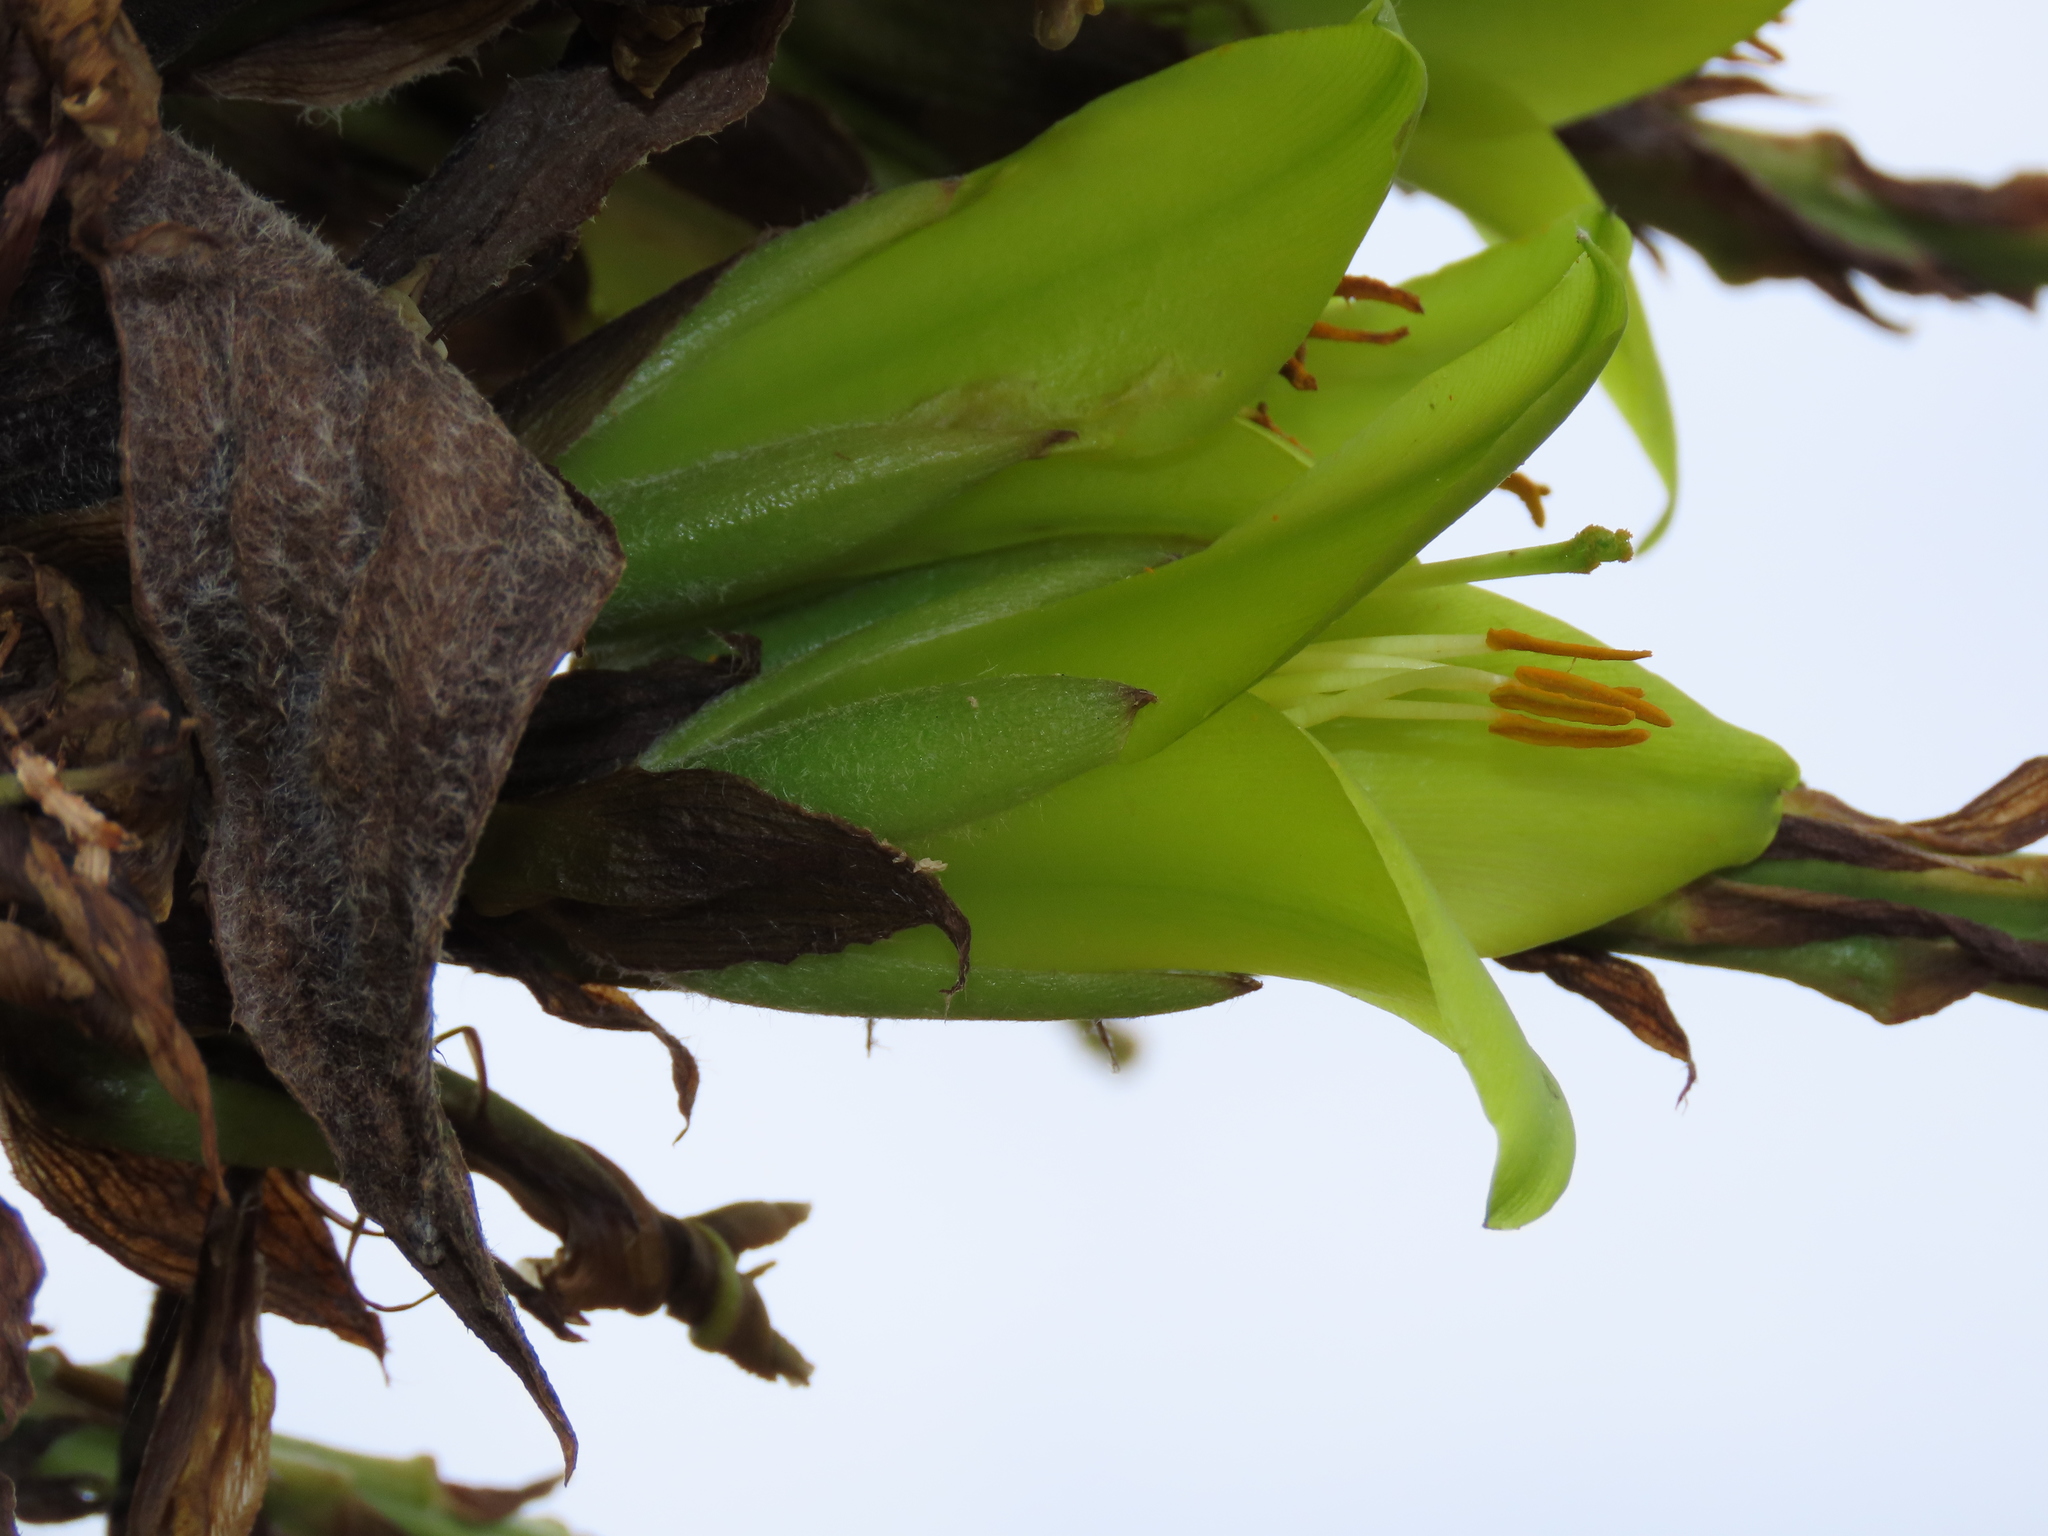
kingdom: Plantae
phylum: Tracheophyta
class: Liliopsida
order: Poales
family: Bromeliaceae
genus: Puya
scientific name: Puya chilensis
